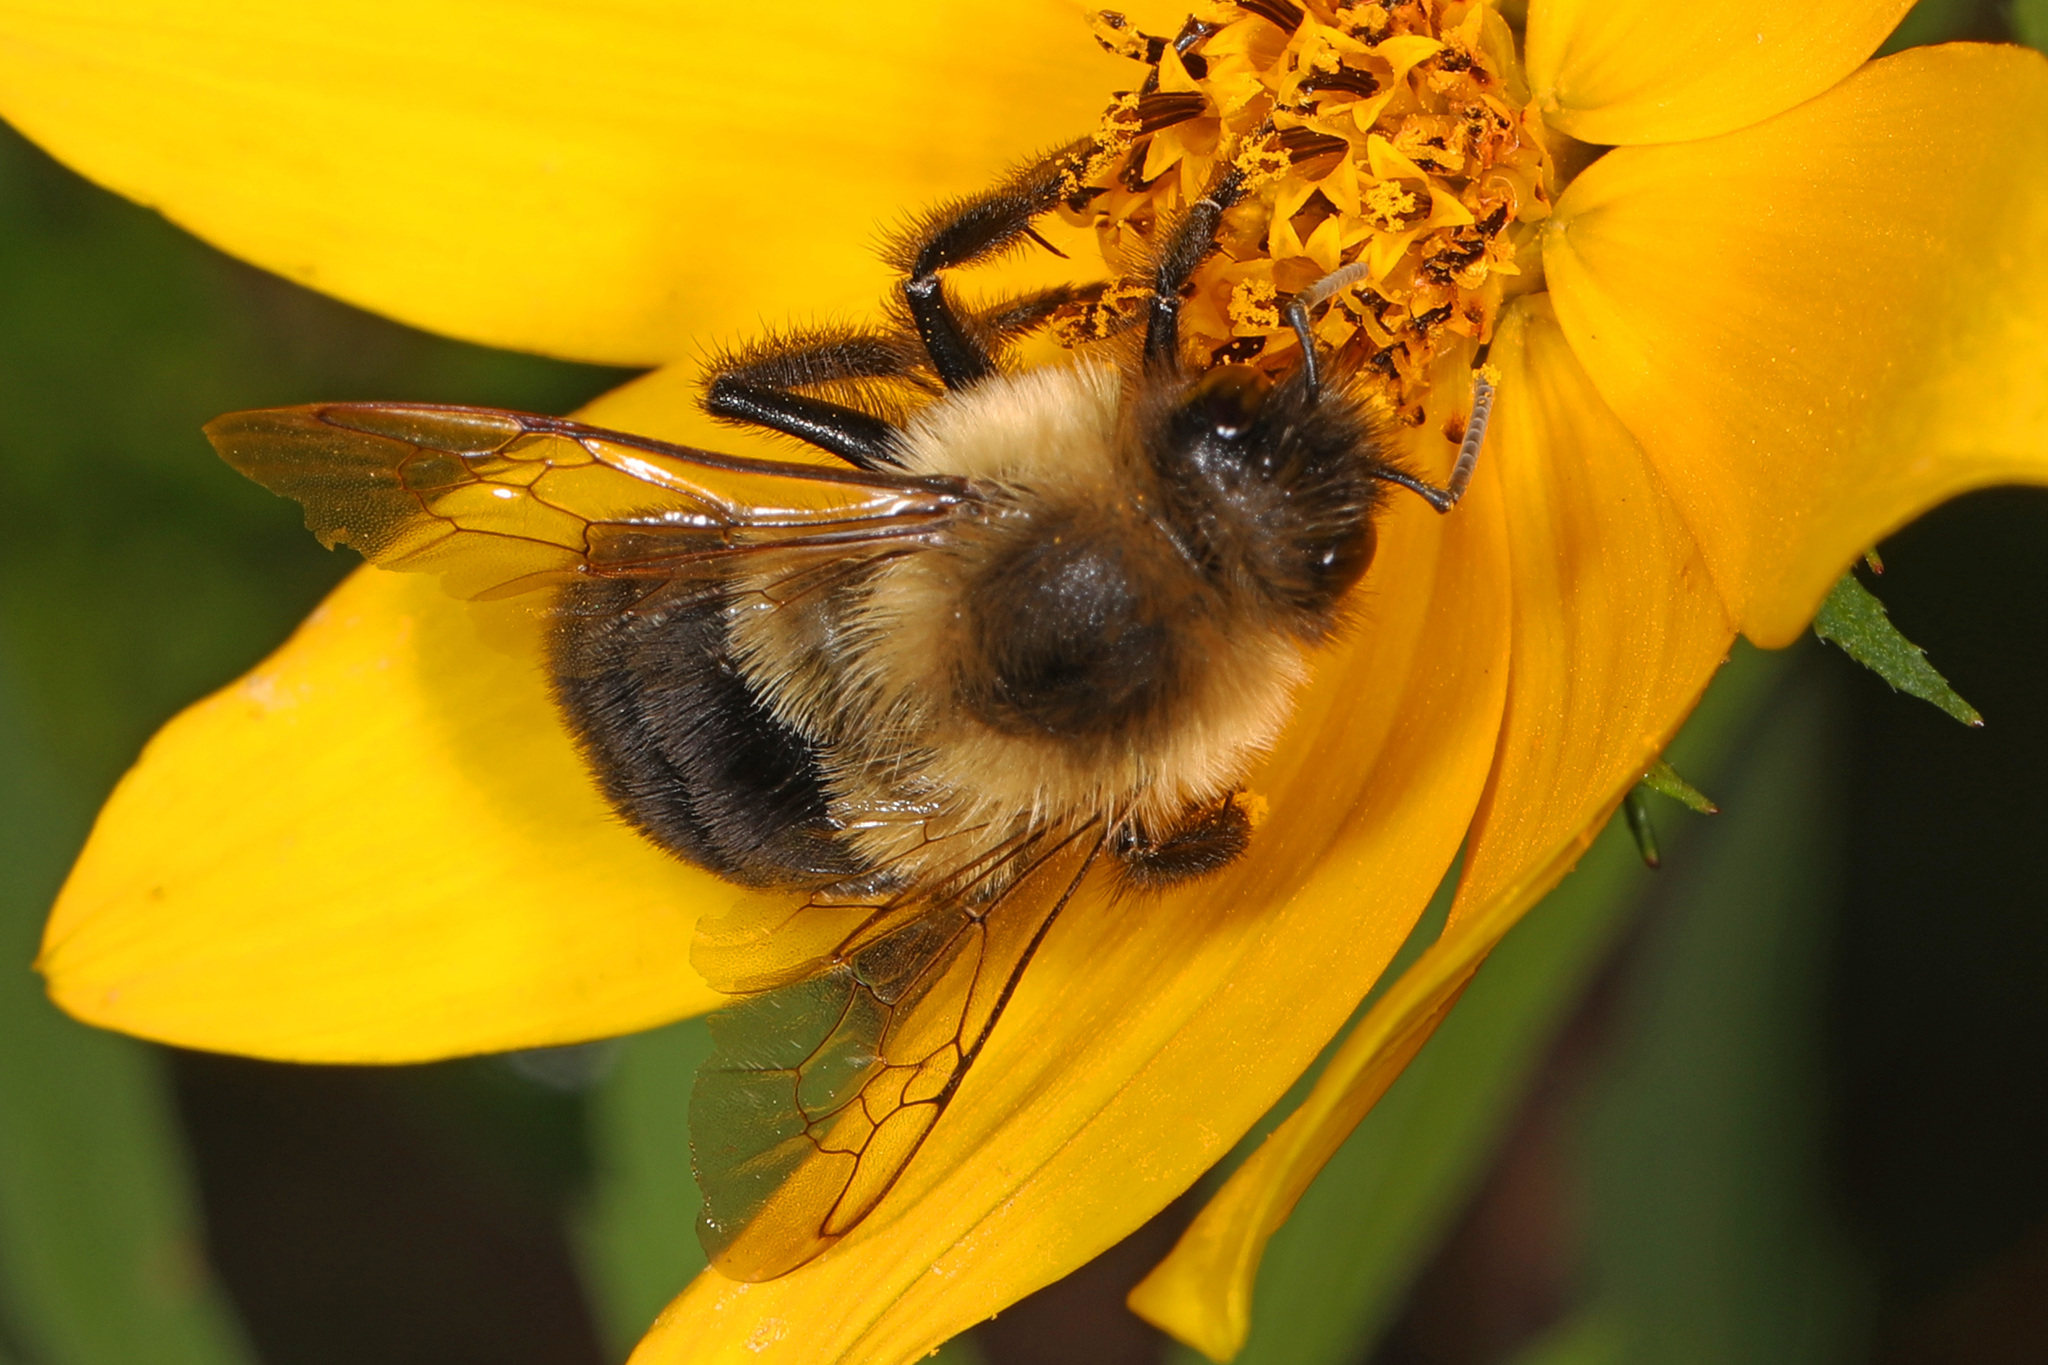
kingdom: Animalia
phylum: Arthropoda
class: Insecta
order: Hymenoptera
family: Apidae
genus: Bombus
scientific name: Bombus impatiens
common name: Common eastern bumble bee
